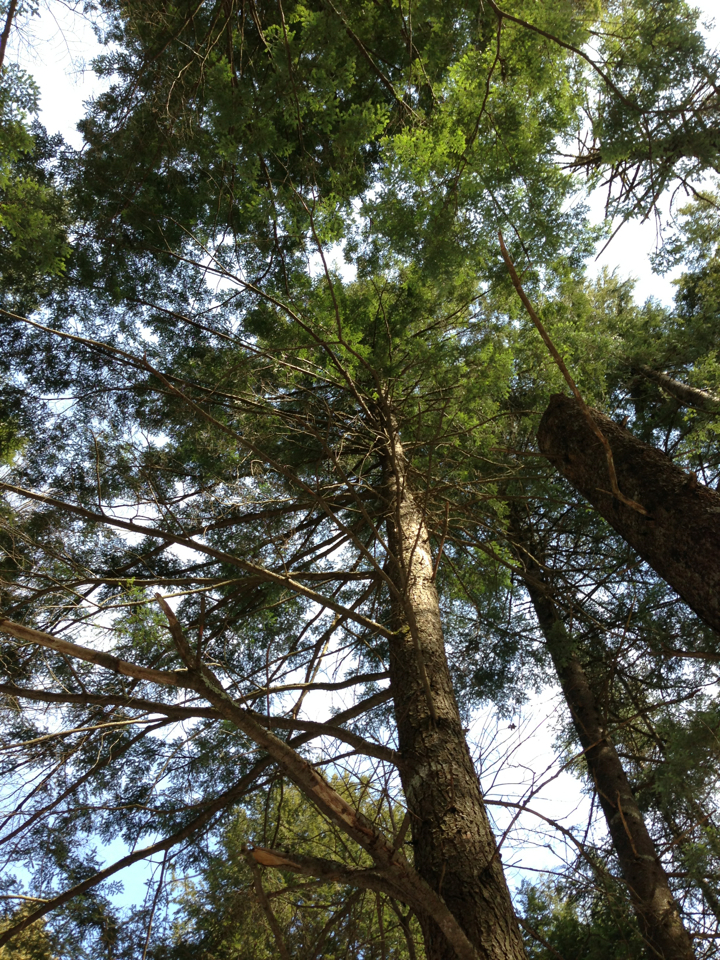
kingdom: Plantae
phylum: Tracheophyta
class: Pinopsida
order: Pinales
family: Pinaceae
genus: Tsuga
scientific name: Tsuga canadensis
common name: Eastern hemlock
